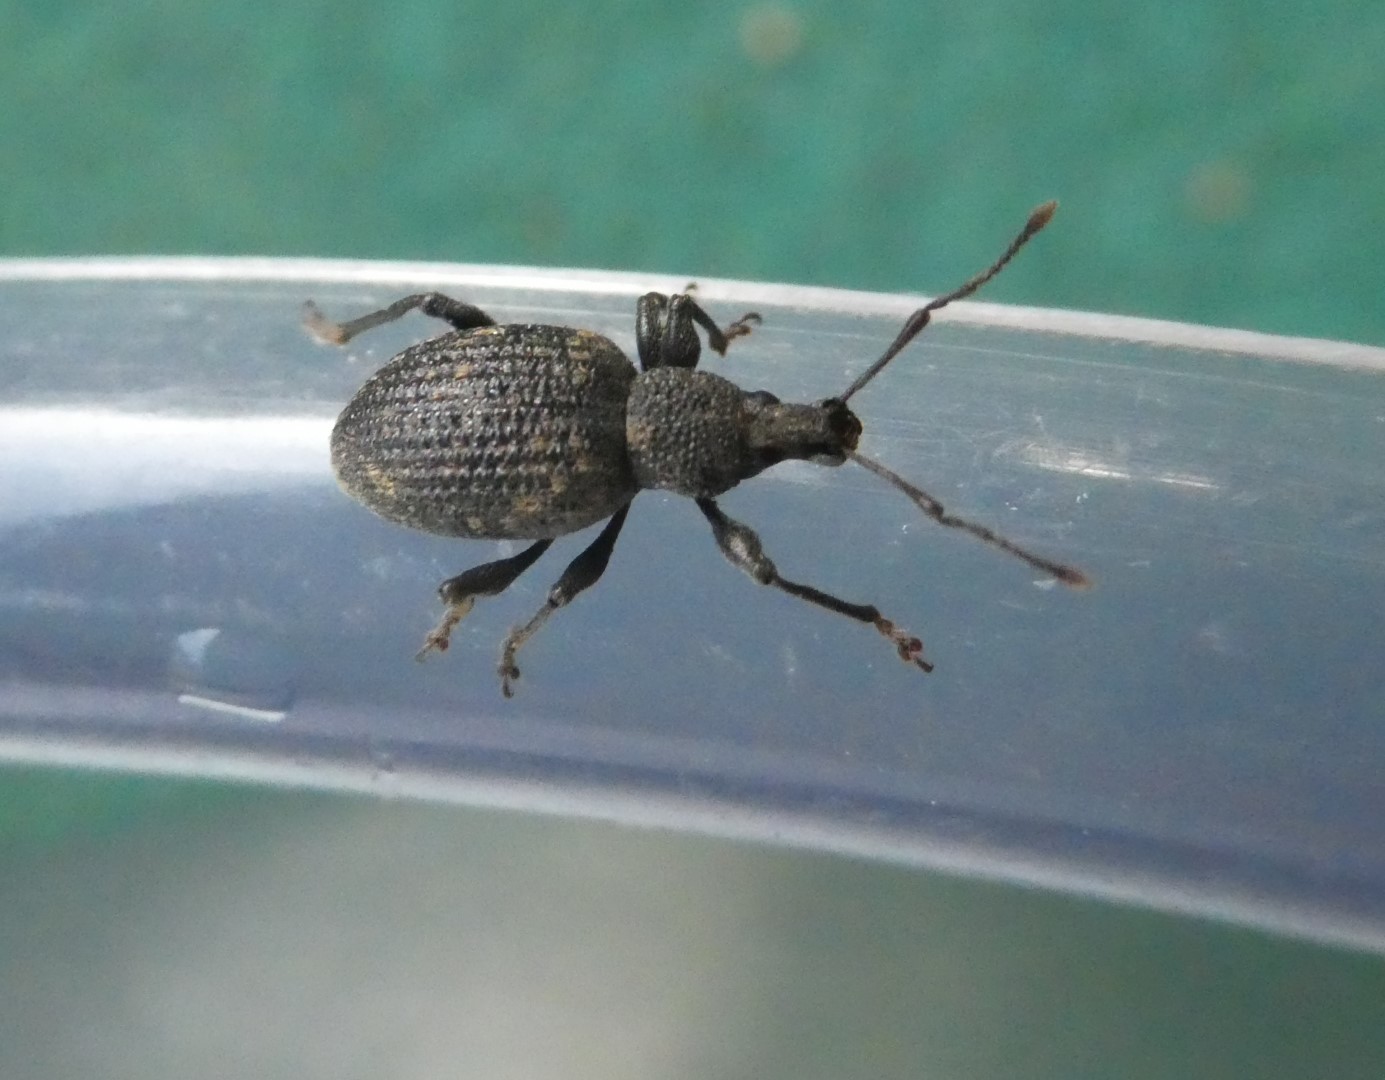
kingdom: Animalia
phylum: Arthropoda
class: Insecta
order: Coleoptera
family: Curculionidae
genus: Otiorhynchus
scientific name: Otiorhynchus sulcatus
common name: Black vine weevil
